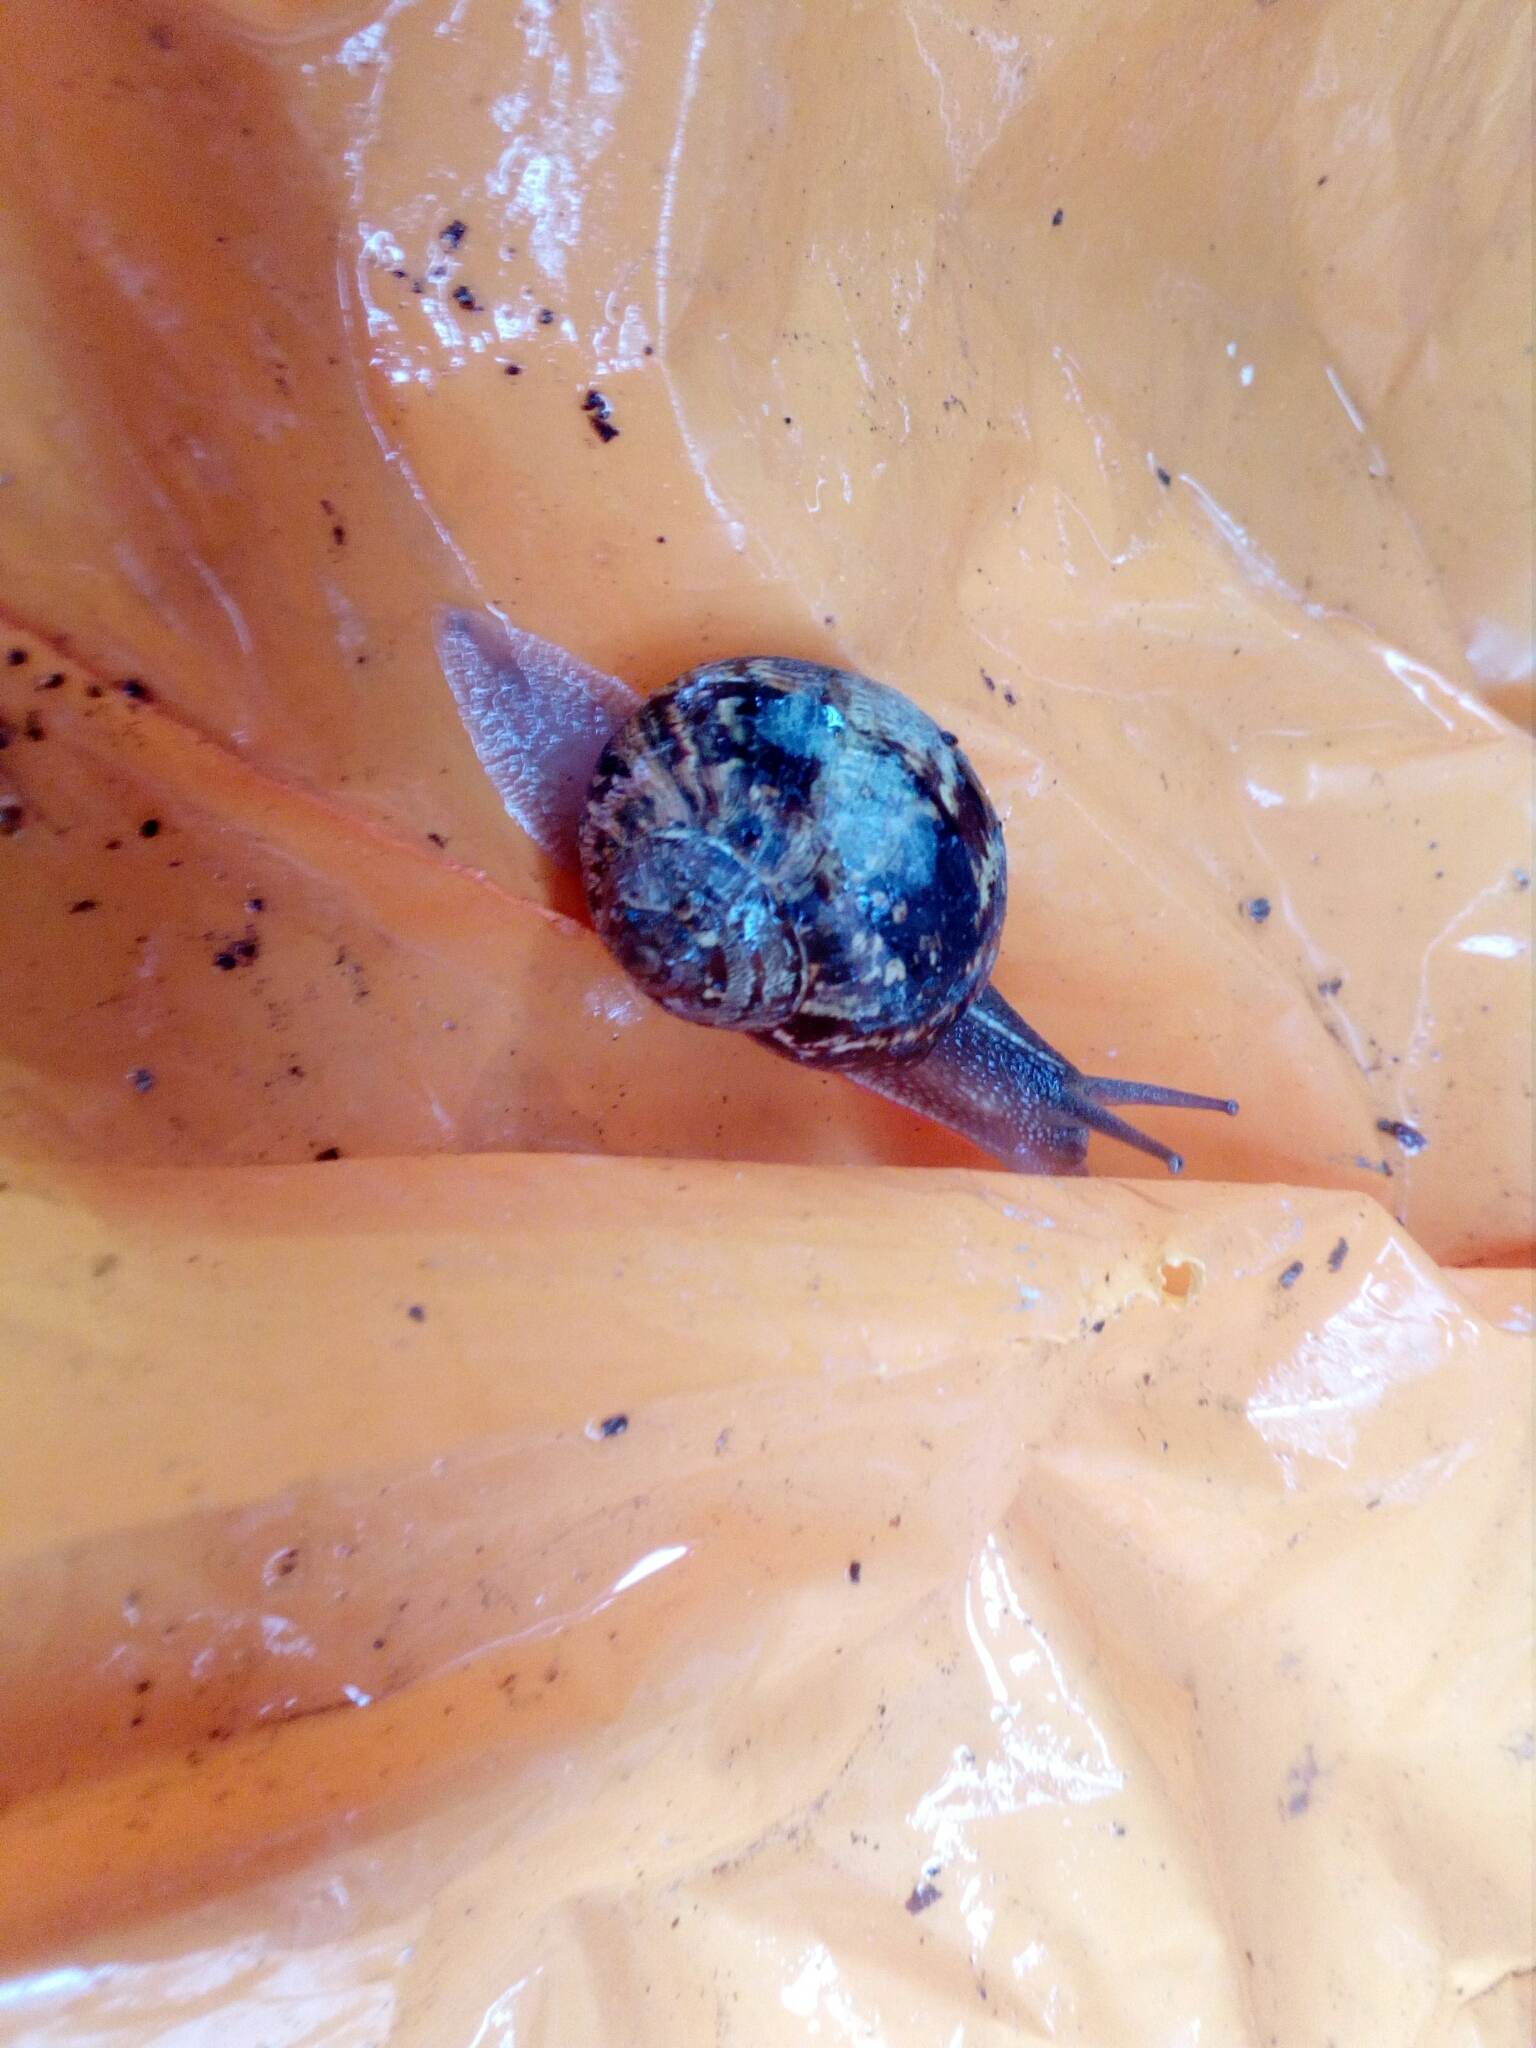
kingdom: Animalia
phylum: Mollusca
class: Gastropoda
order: Stylommatophora
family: Helicidae
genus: Cornu
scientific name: Cornu aspersum
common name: Brown garden snail
